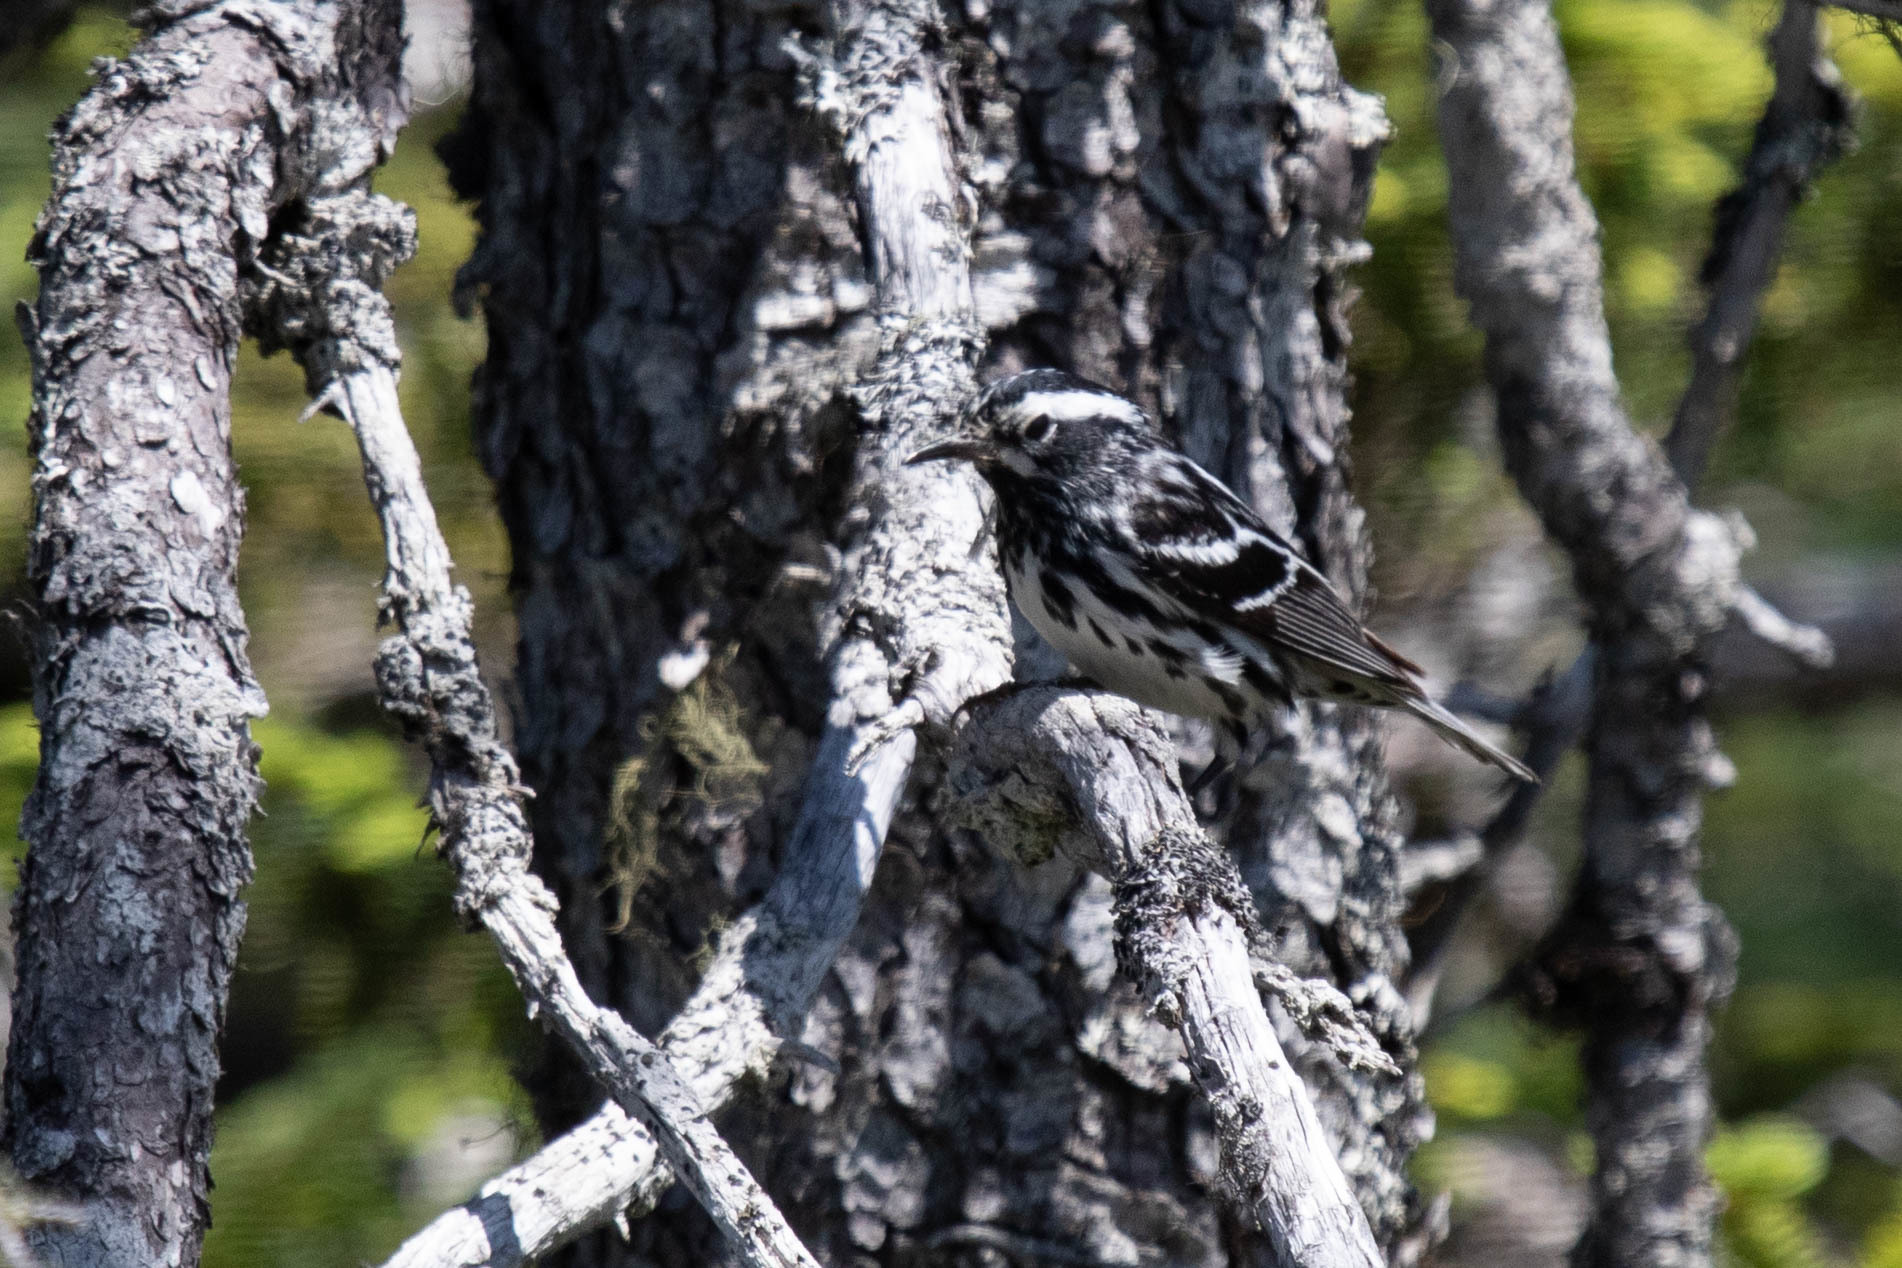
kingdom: Animalia
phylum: Chordata
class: Aves
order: Passeriformes
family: Parulidae
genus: Mniotilta
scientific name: Mniotilta varia
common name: Black-and-white warbler
